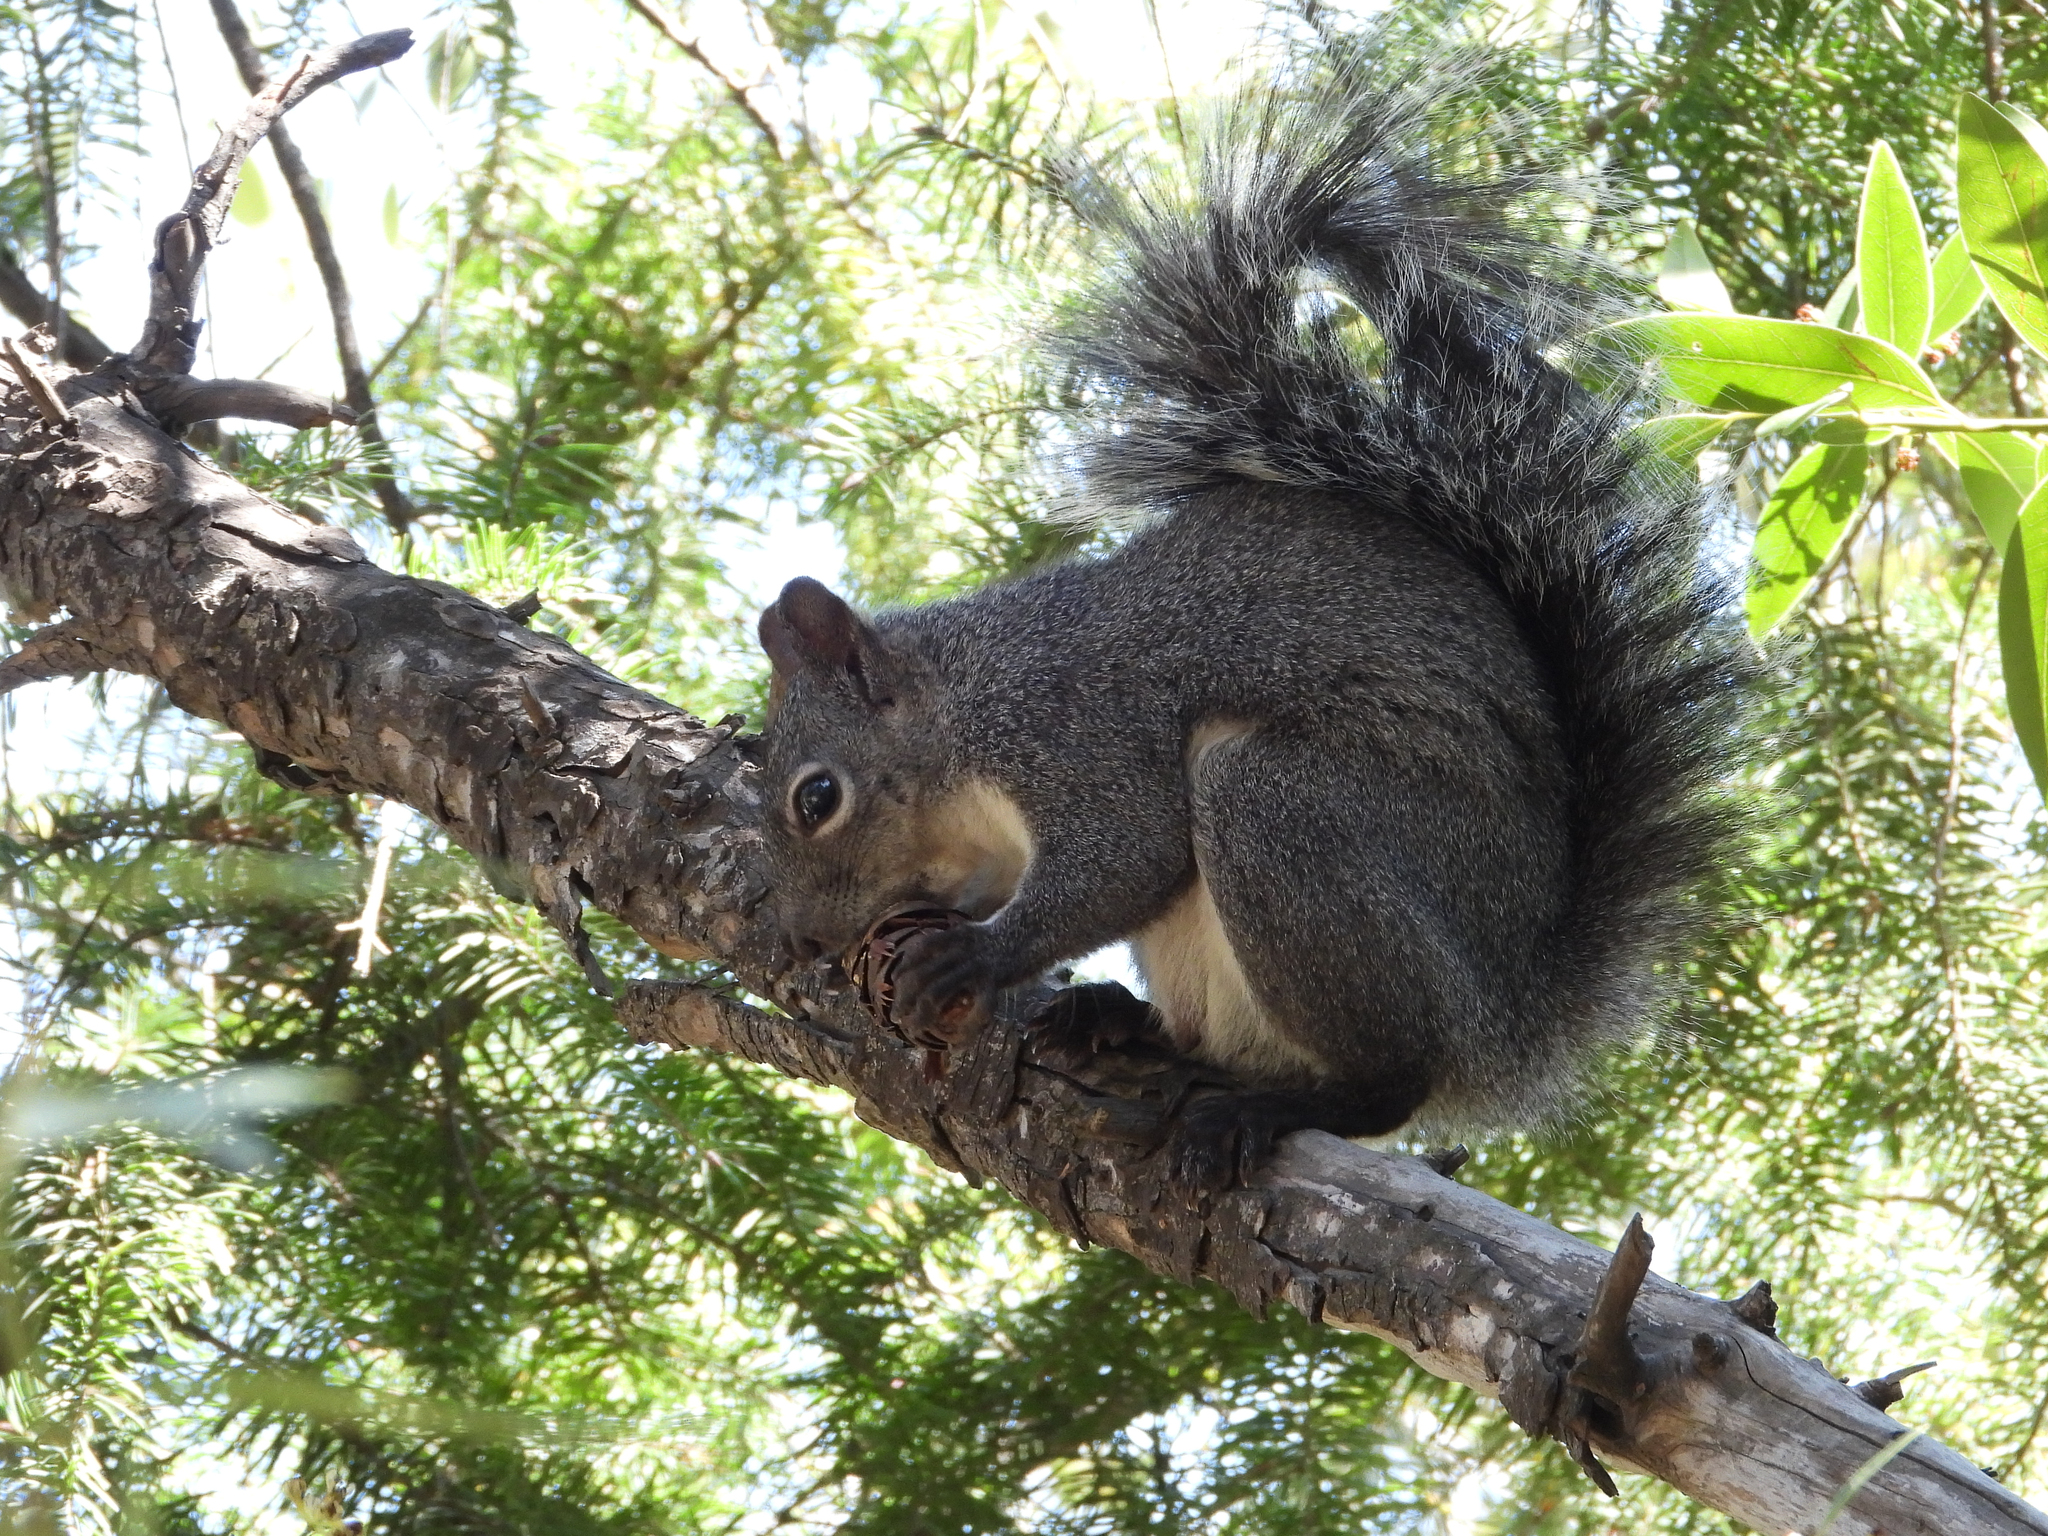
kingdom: Animalia
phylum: Chordata
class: Mammalia
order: Rodentia
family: Sciuridae
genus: Sciurus
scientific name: Sciurus griseus
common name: Western gray squirrel
